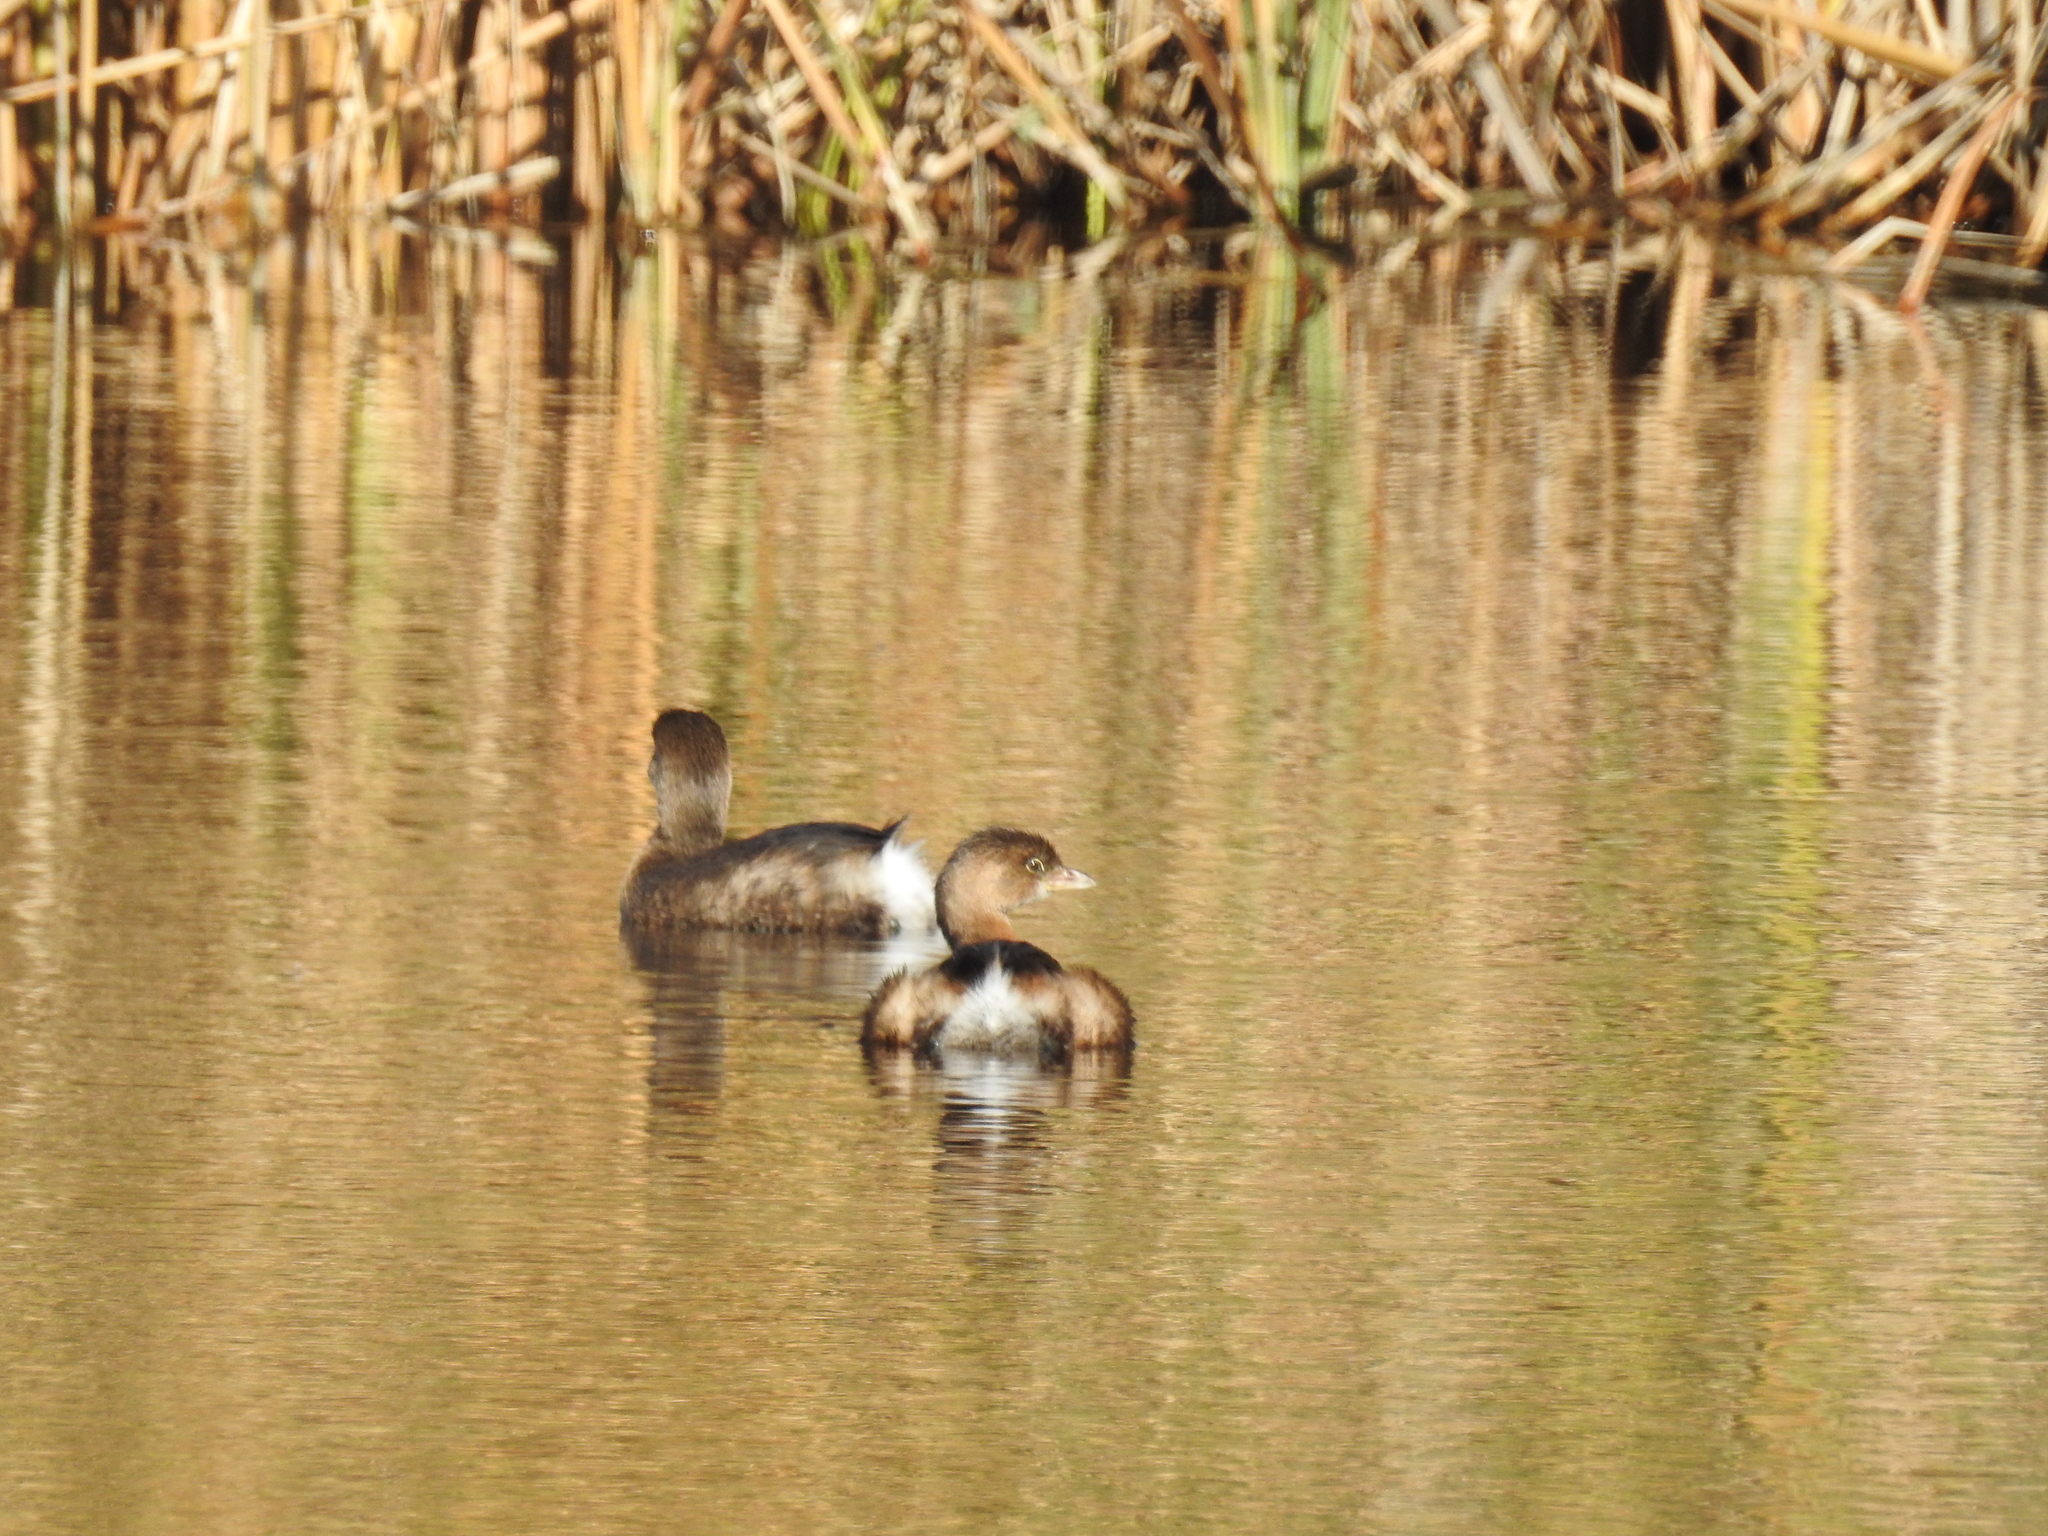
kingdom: Animalia
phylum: Chordata
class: Aves
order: Podicipediformes
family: Podicipedidae
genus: Podilymbus
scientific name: Podilymbus podiceps
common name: Pied-billed grebe
